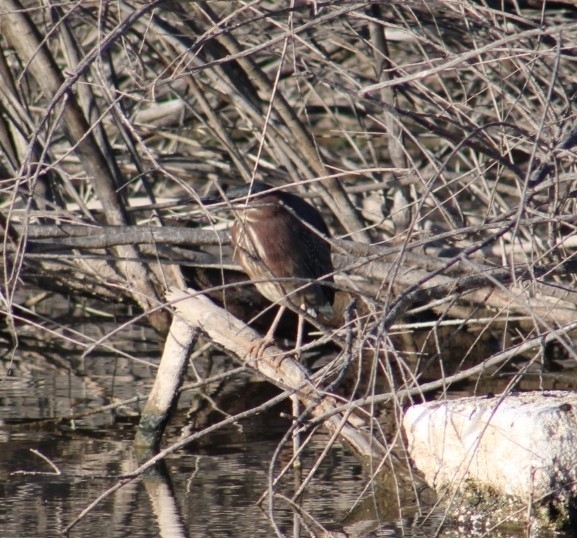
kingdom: Animalia
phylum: Chordata
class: Aves
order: Pelecaniformes
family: Ardeidae
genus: Butorides
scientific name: Butorides virescens
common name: Green heron
